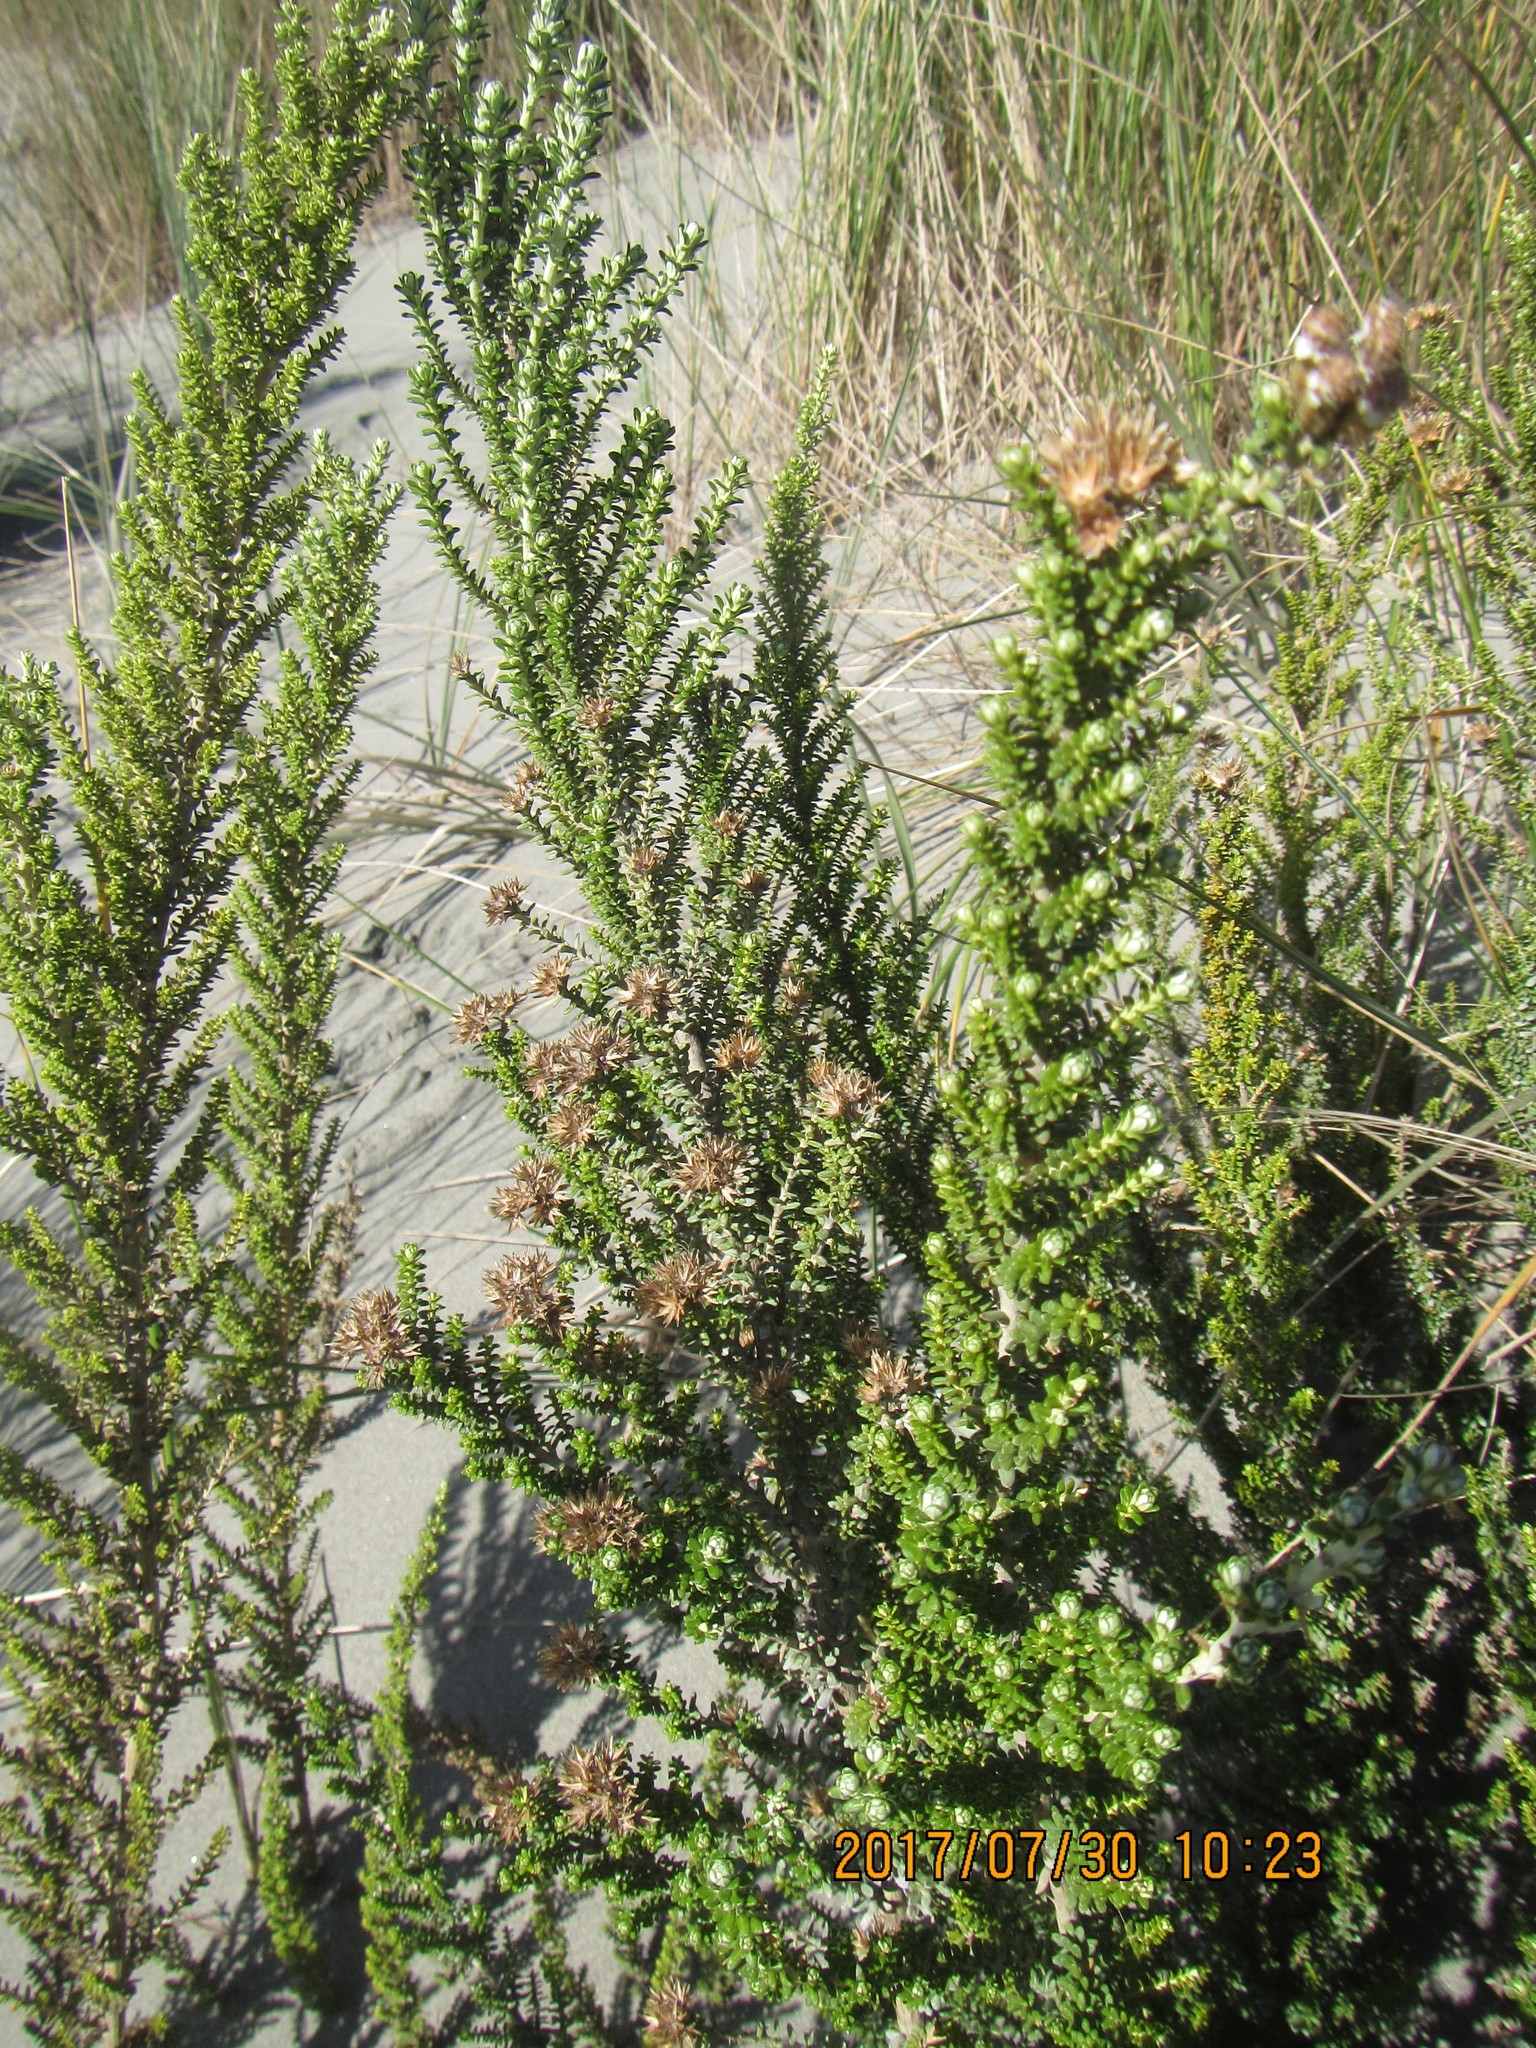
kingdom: Plantae
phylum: Tracheophyta
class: Magnoliopsida
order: Asterales
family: Asteraceae
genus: Ozothamnus
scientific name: Ozothamnus leptophyllus
